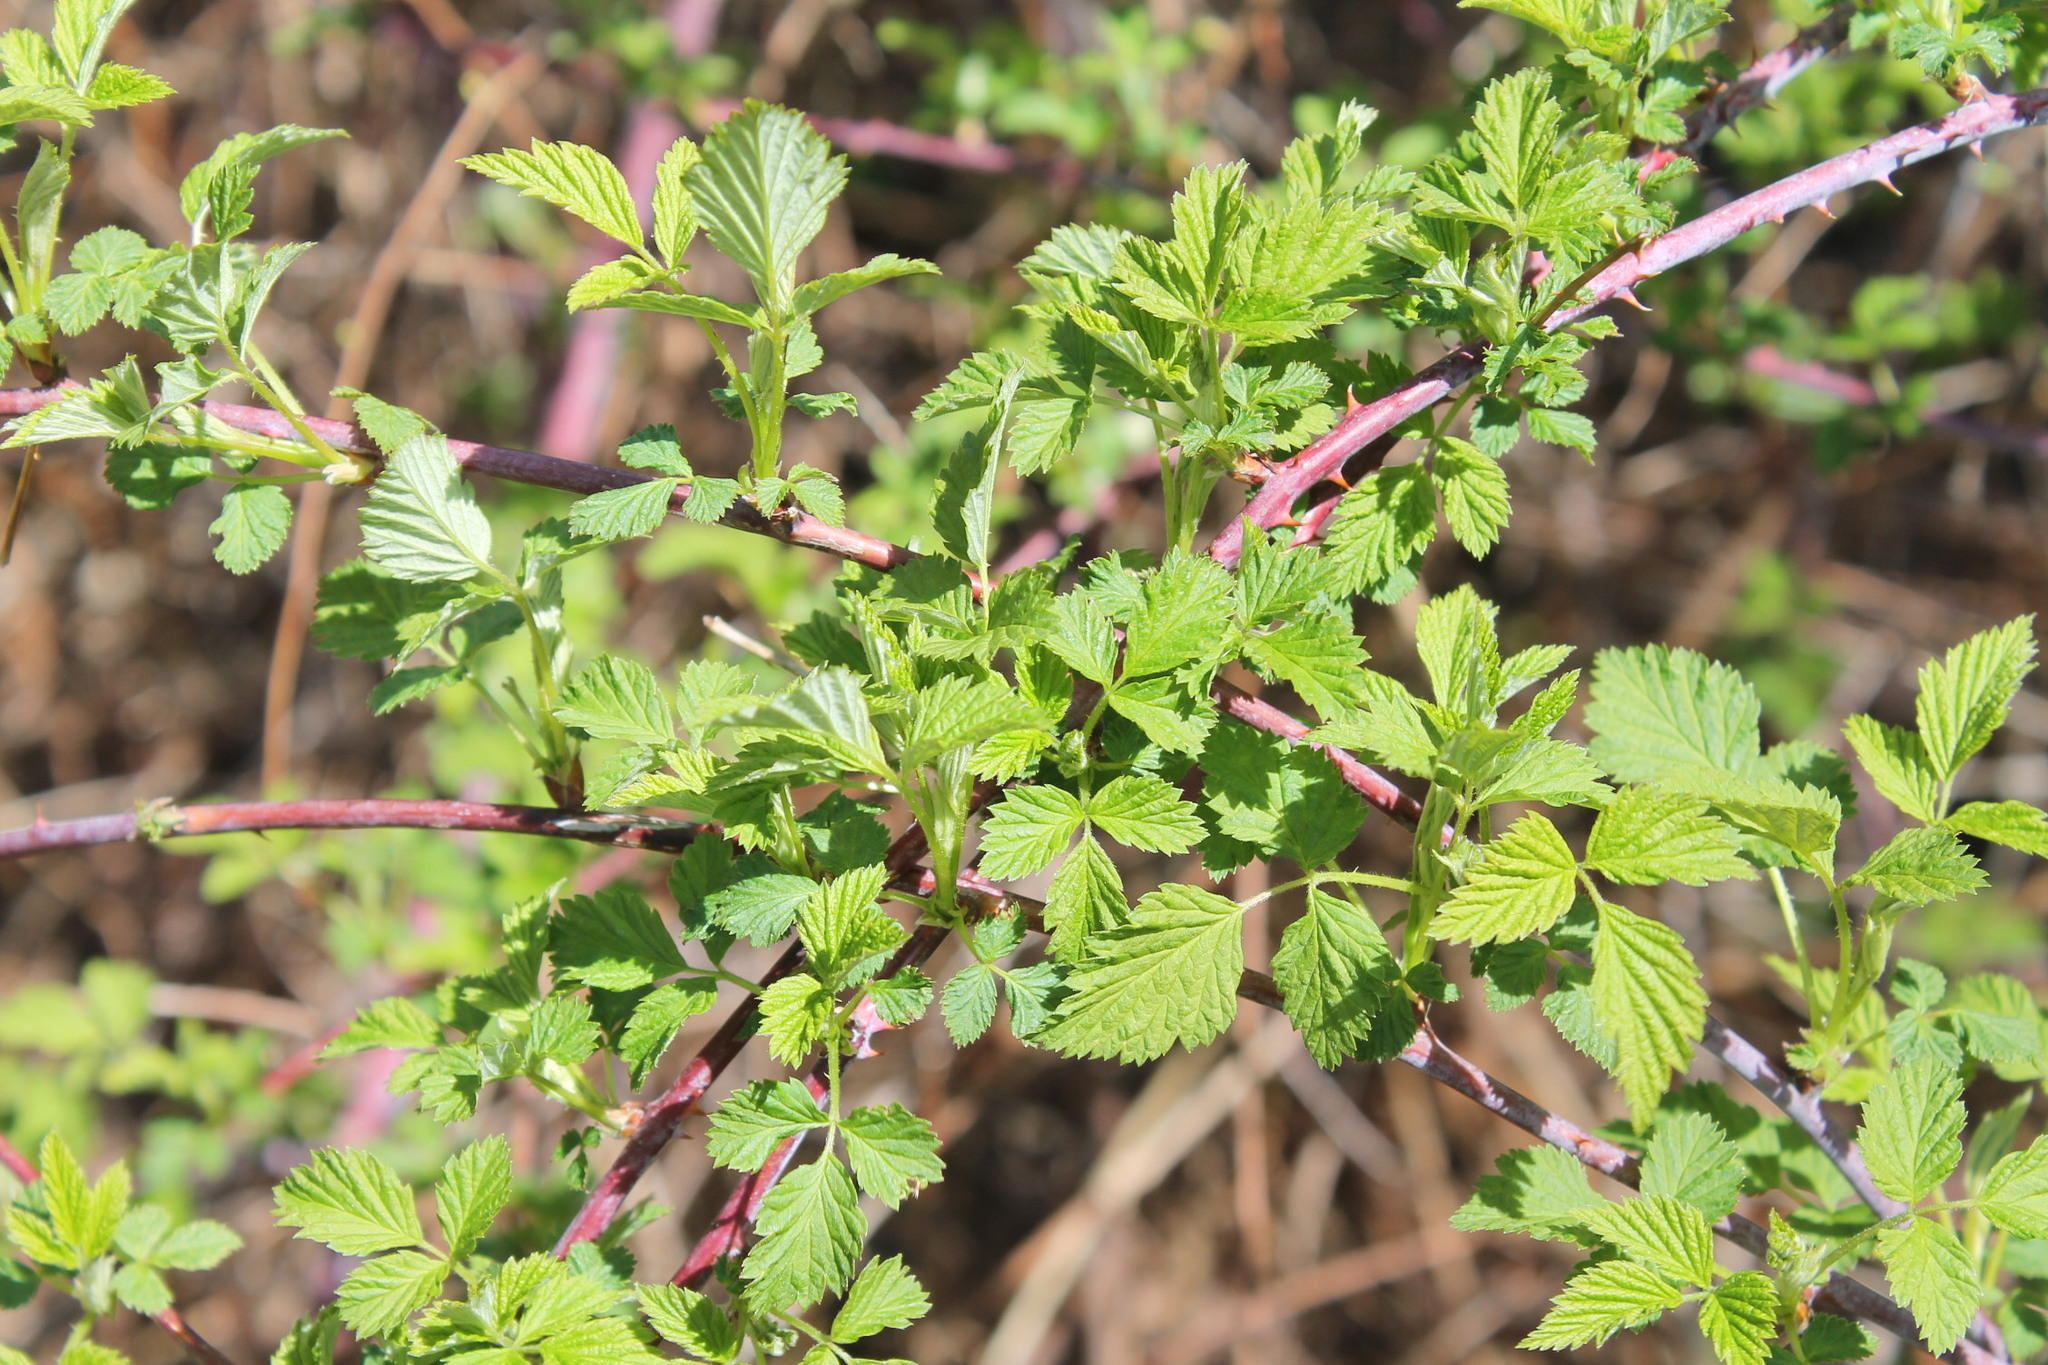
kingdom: Plantae
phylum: Tracheophyta
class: Magnoliopsida
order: Rosales
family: Rosaceae
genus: Rubus
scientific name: Rubus occidentalis
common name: Black raspberry
